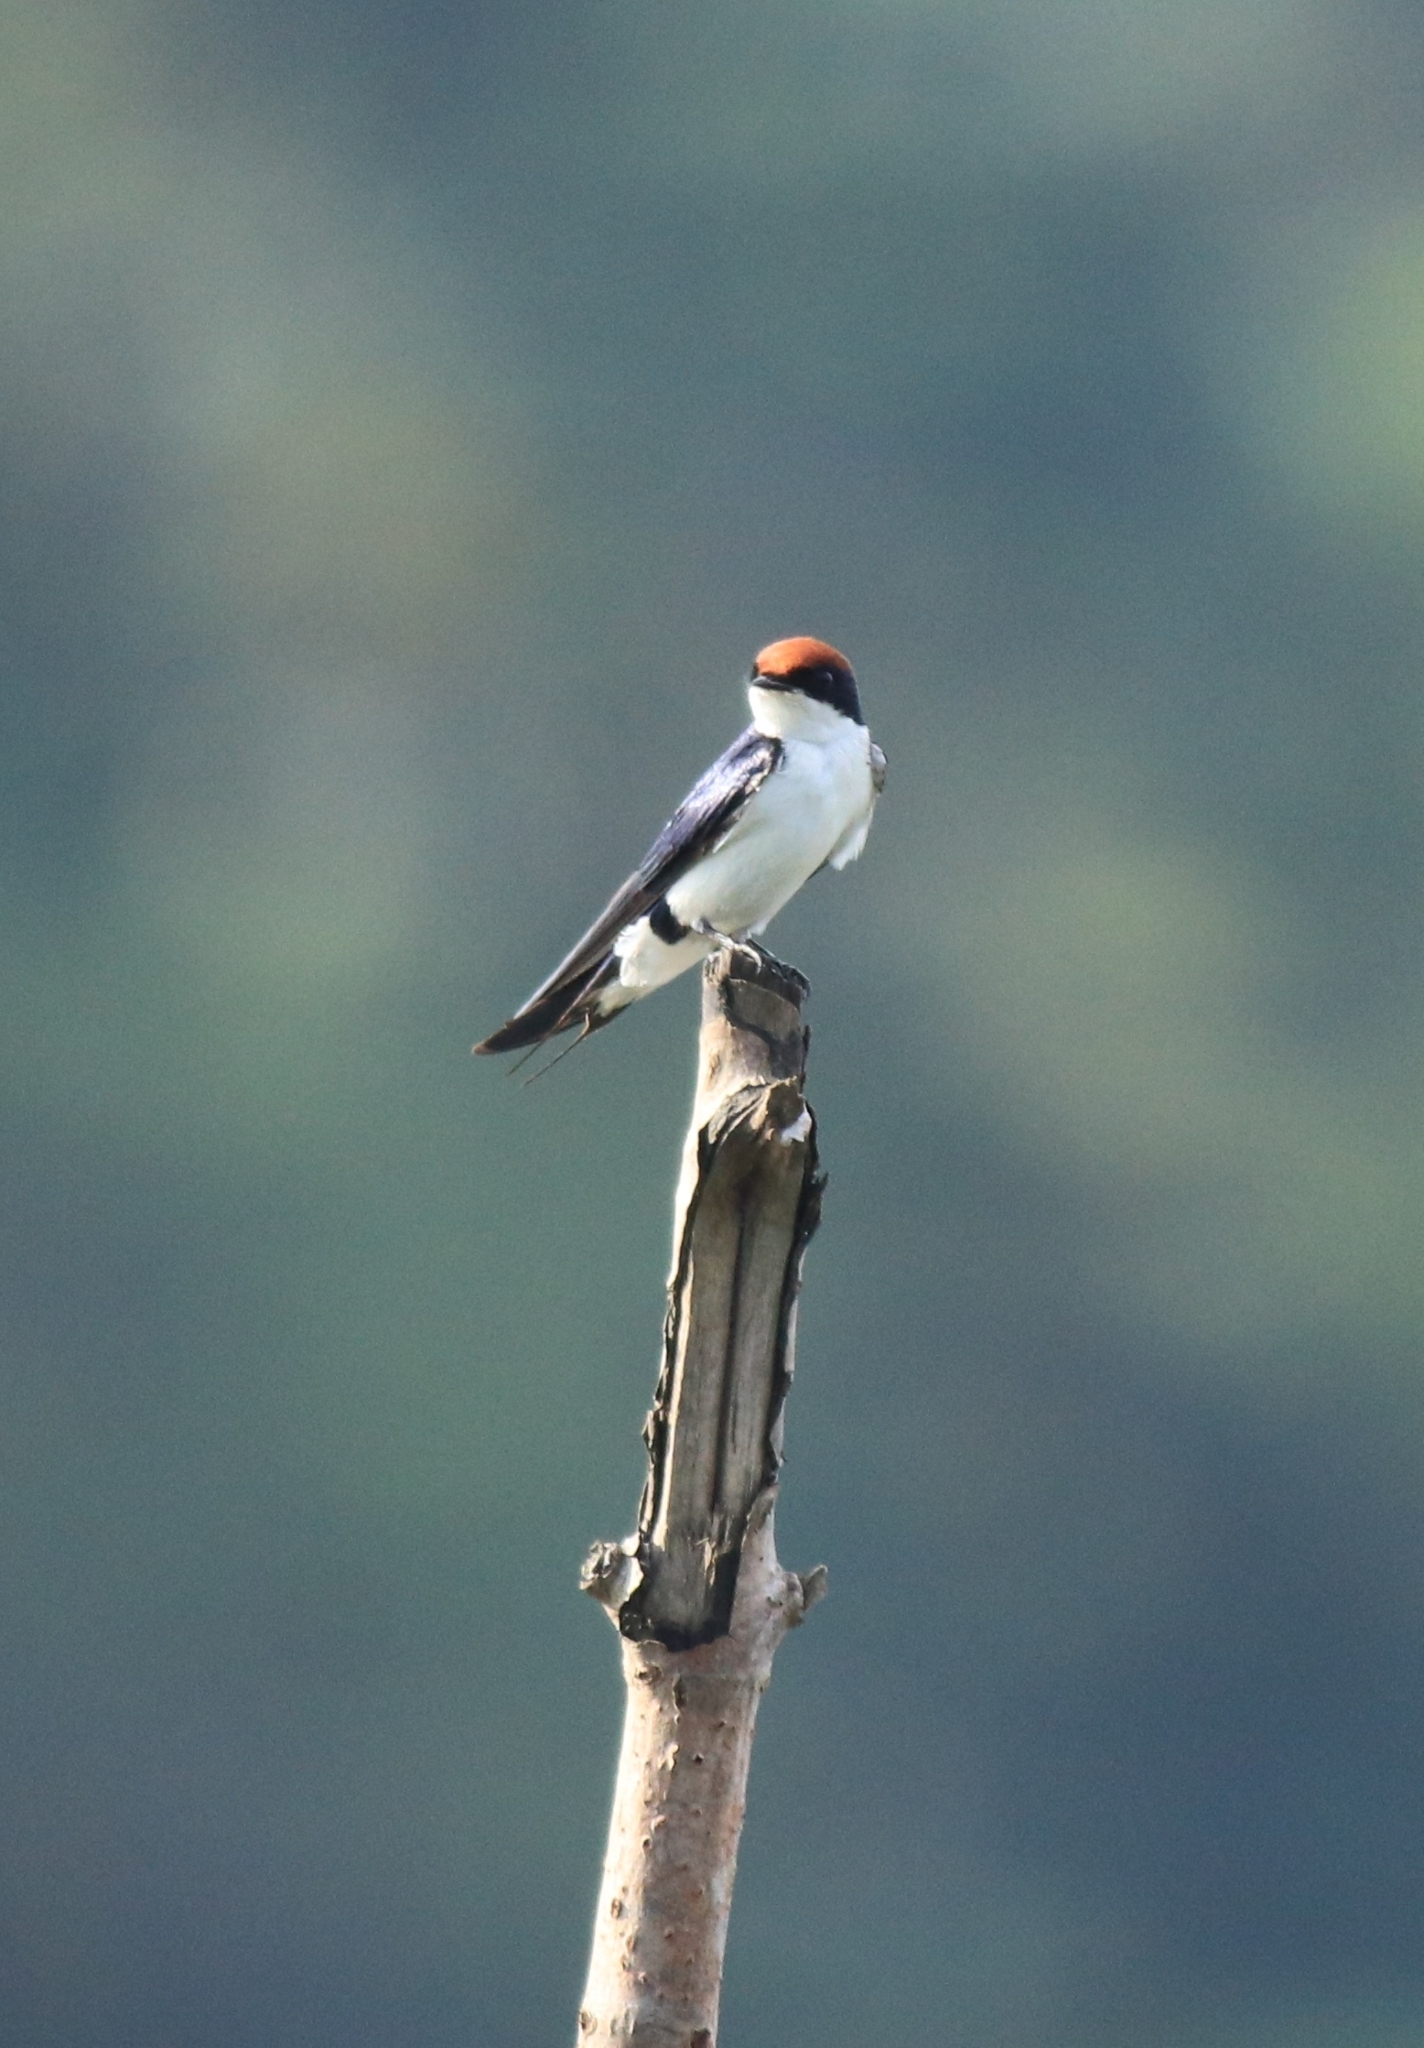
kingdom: Animalia
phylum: Chordata
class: Aves
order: Passeriformes
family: Hirundinidae
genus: Hirundo
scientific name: Hirundo smithii
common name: Wire-tailed swallow
